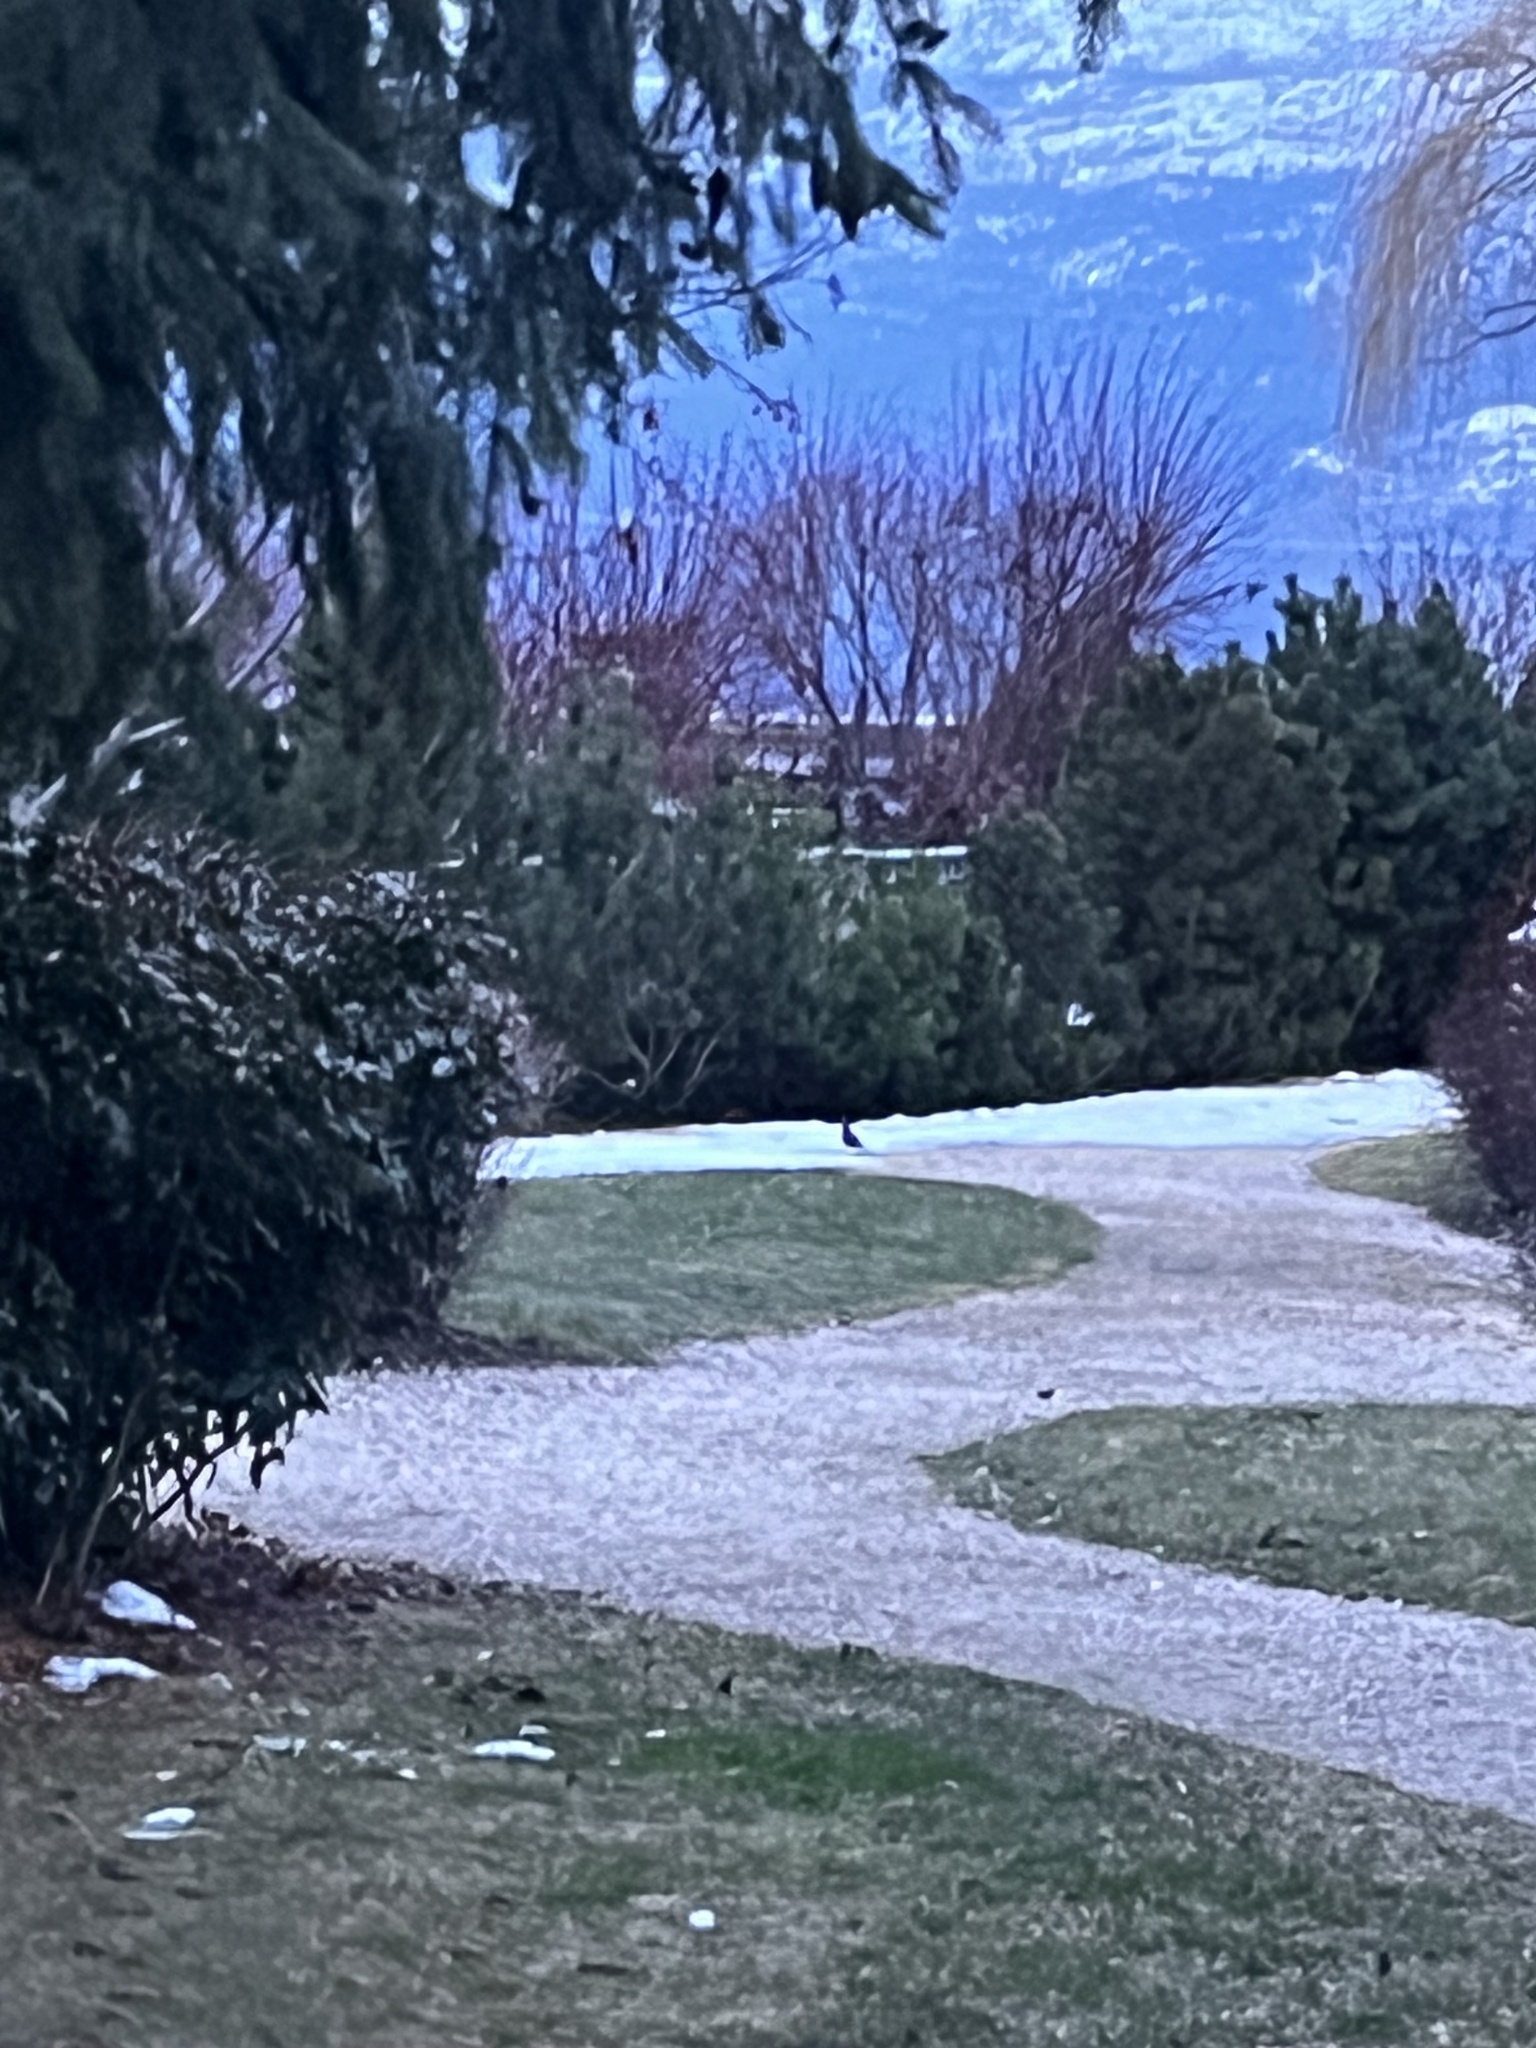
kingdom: Animalia
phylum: Chordata
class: Aves
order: Galliformes
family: Odontophoridae
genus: Callipepla
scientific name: Callipepla californica
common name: California quail
